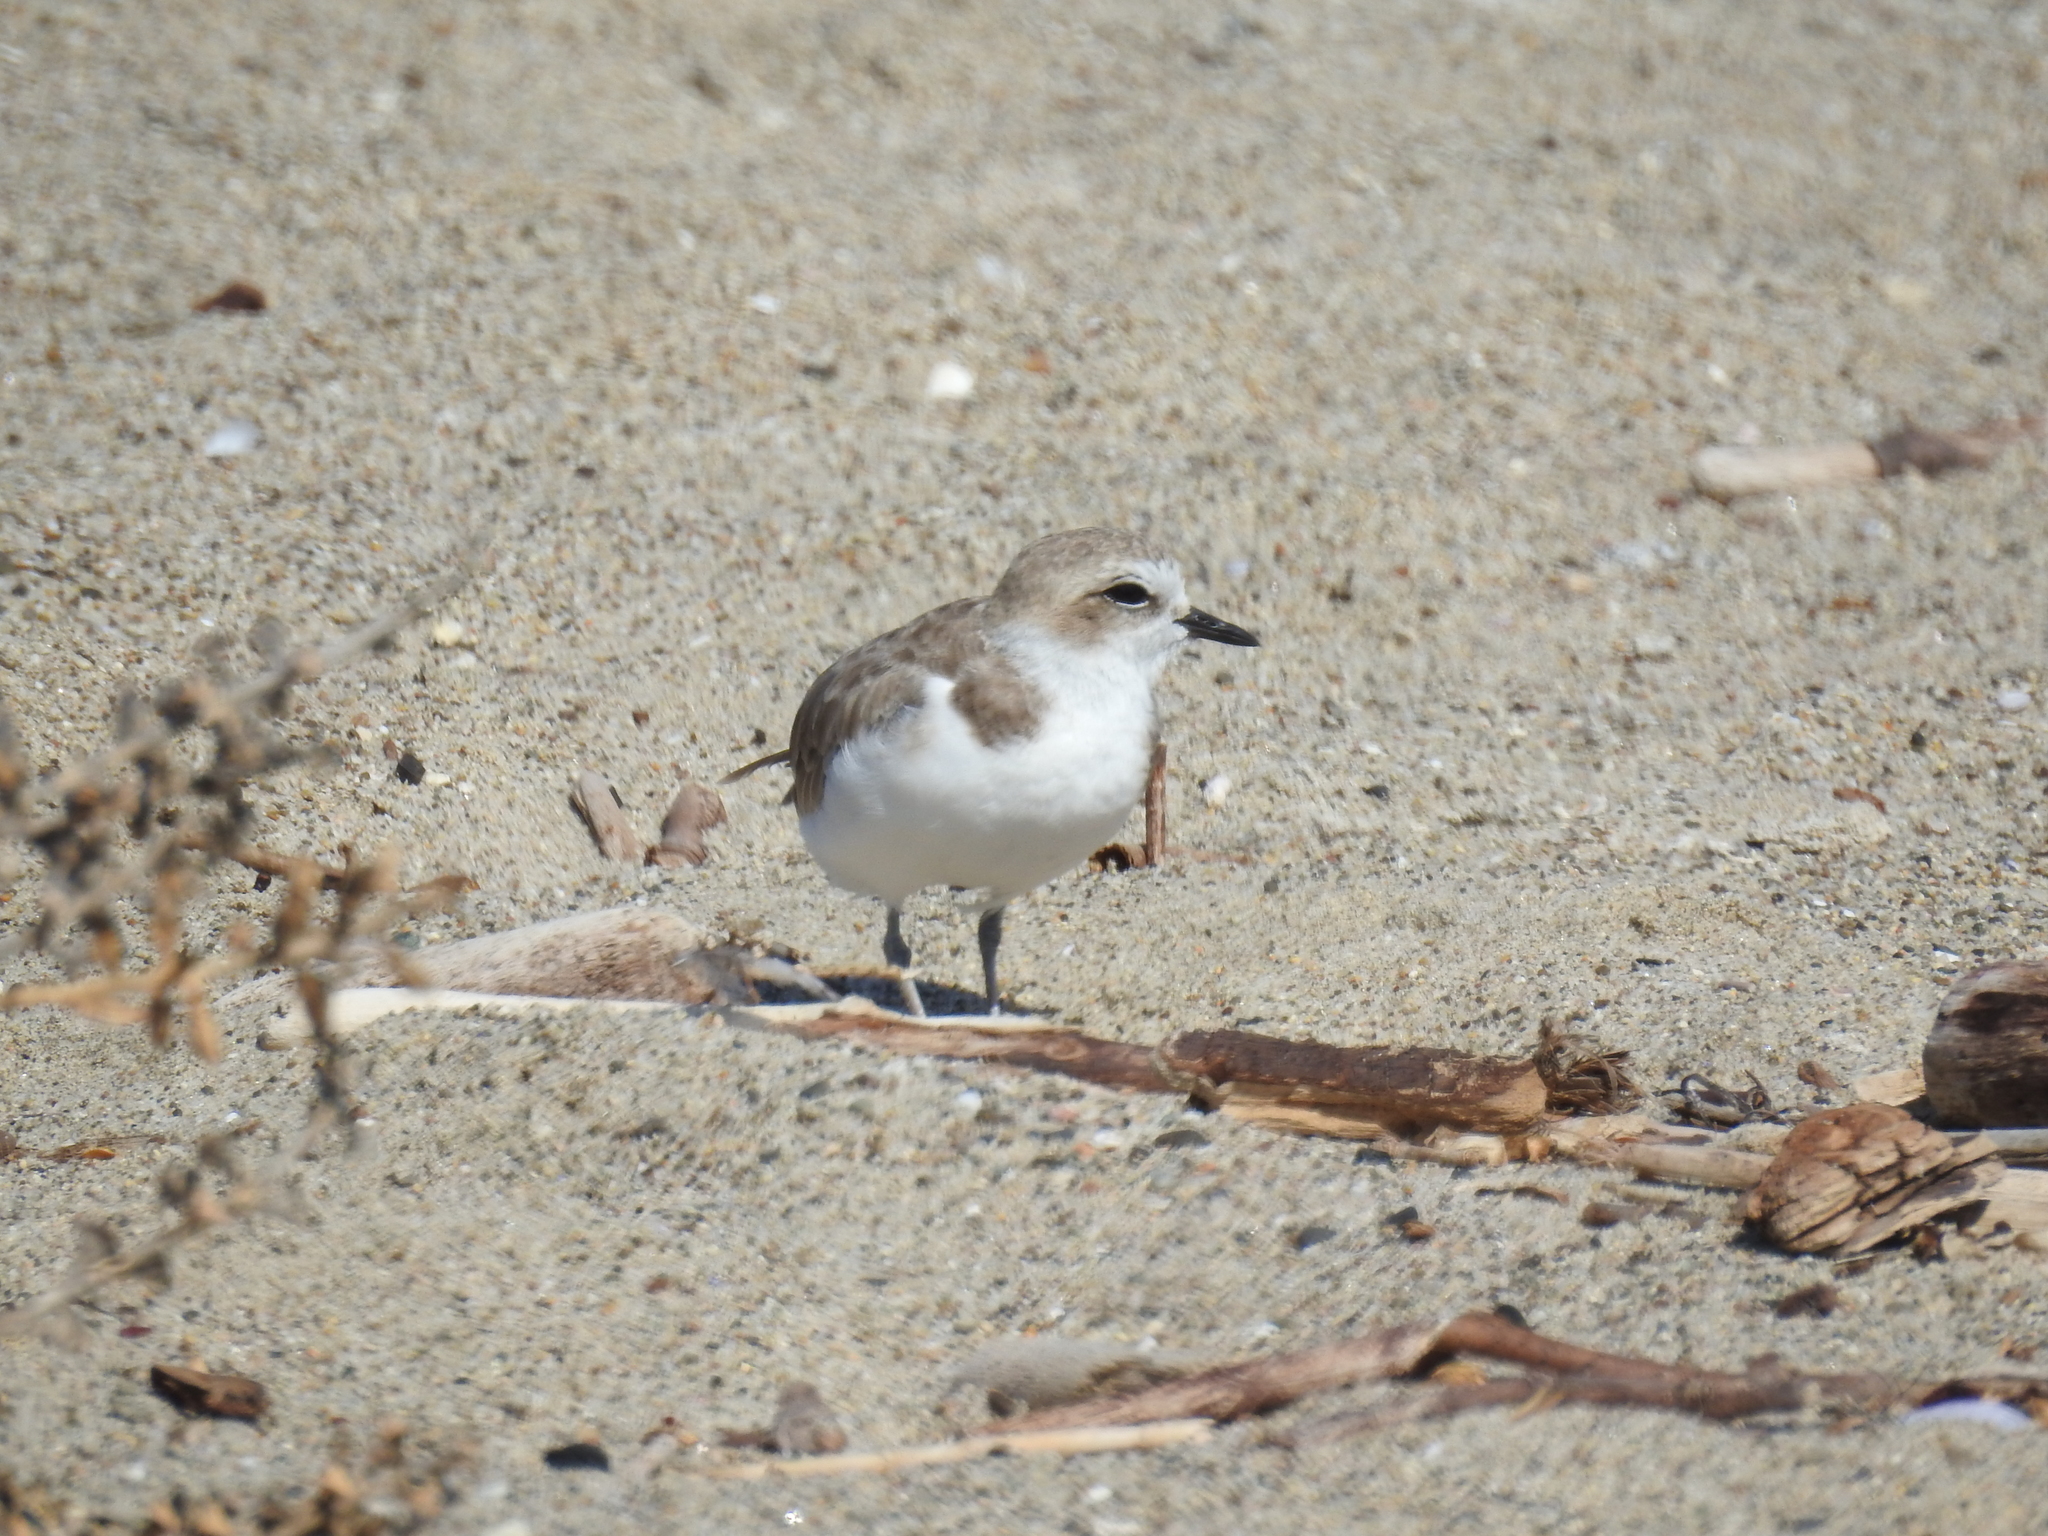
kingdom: Animalia
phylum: Chordata
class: Aves
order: Charadriiformes
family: Charadriidae
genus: Anarhynchus
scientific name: Anarhynchus
